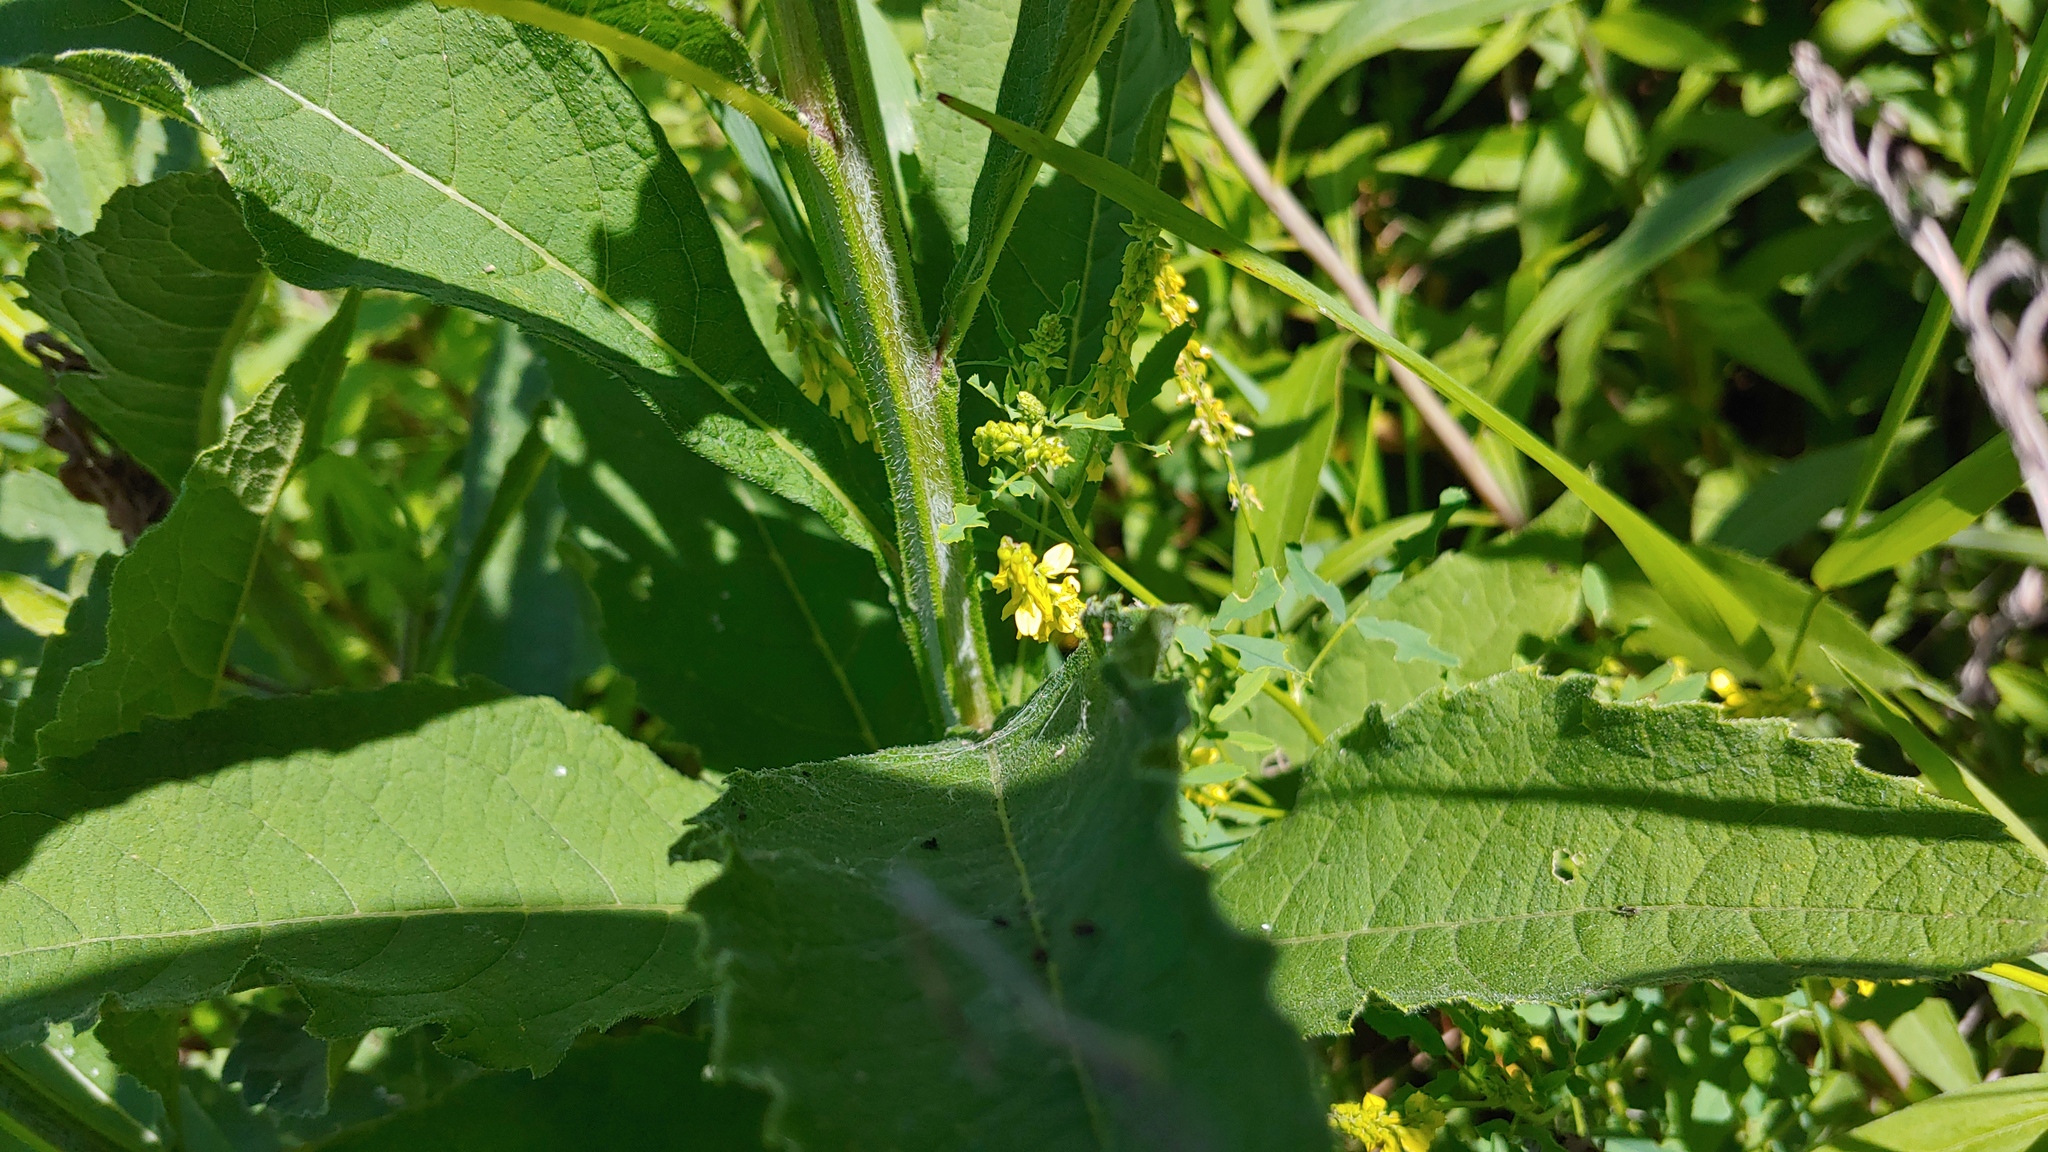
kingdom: Plantae
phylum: Tracheophyta
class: Magnoliopsida
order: Fabales
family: Fabaceae
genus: Melilotus
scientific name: Melilotus officinalis
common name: Sweetclover
